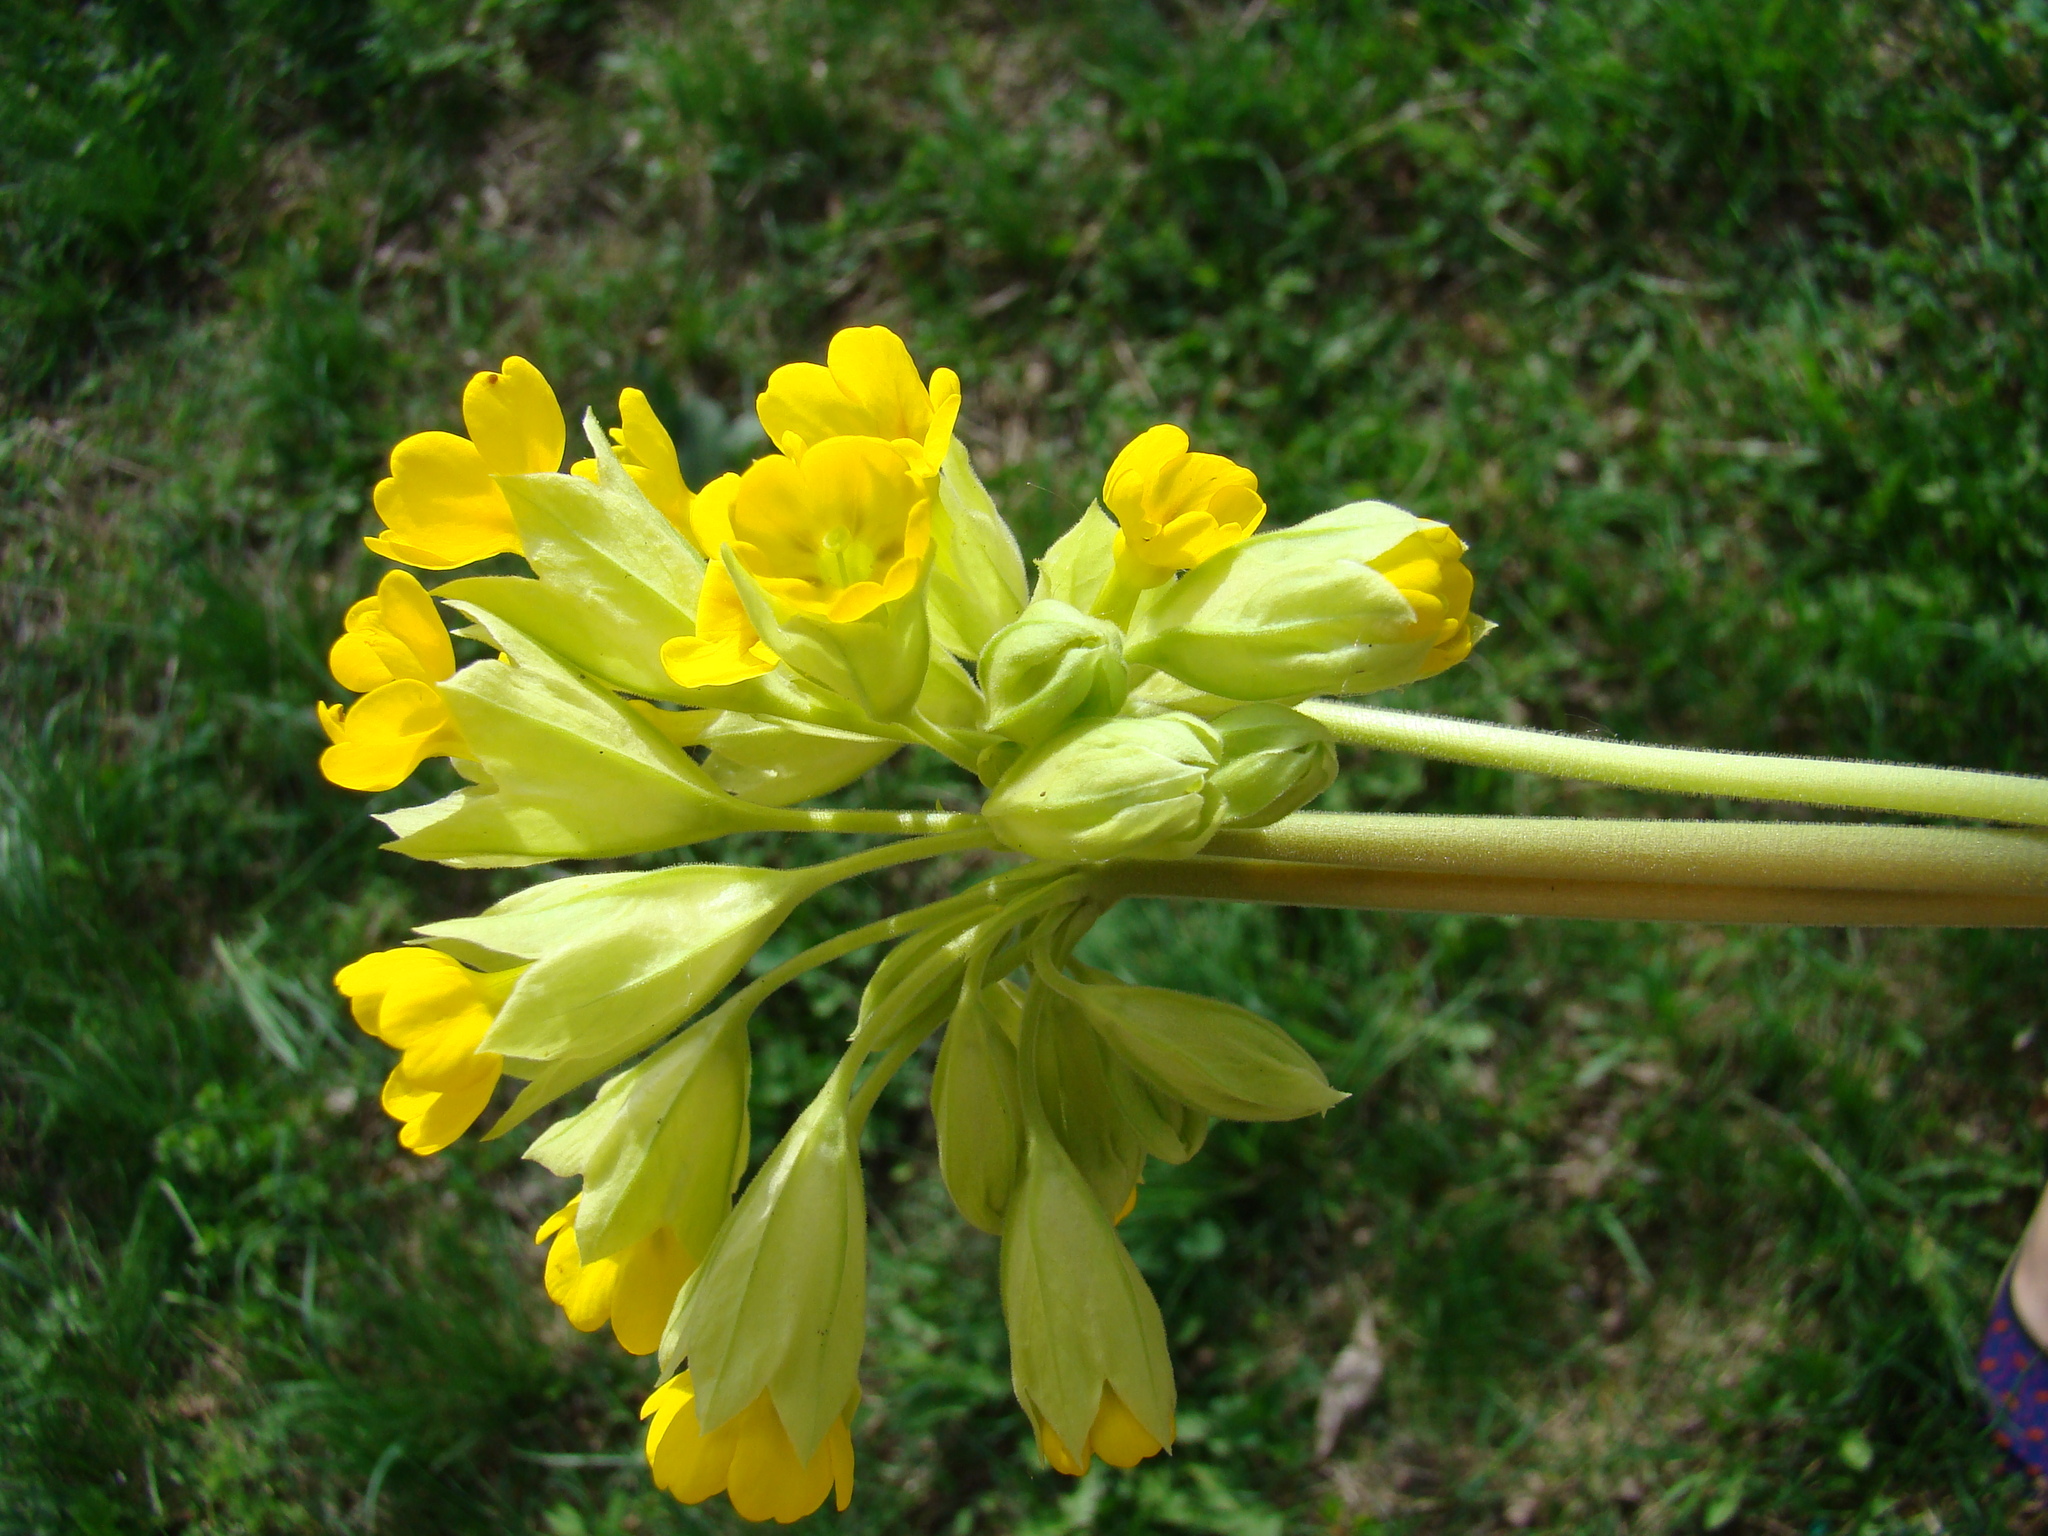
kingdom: Plantae
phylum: Tracheophyta
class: Magnoliopsida
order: Ericales
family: Primulaceae
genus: Primula
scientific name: Primula veris
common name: Cowslip
